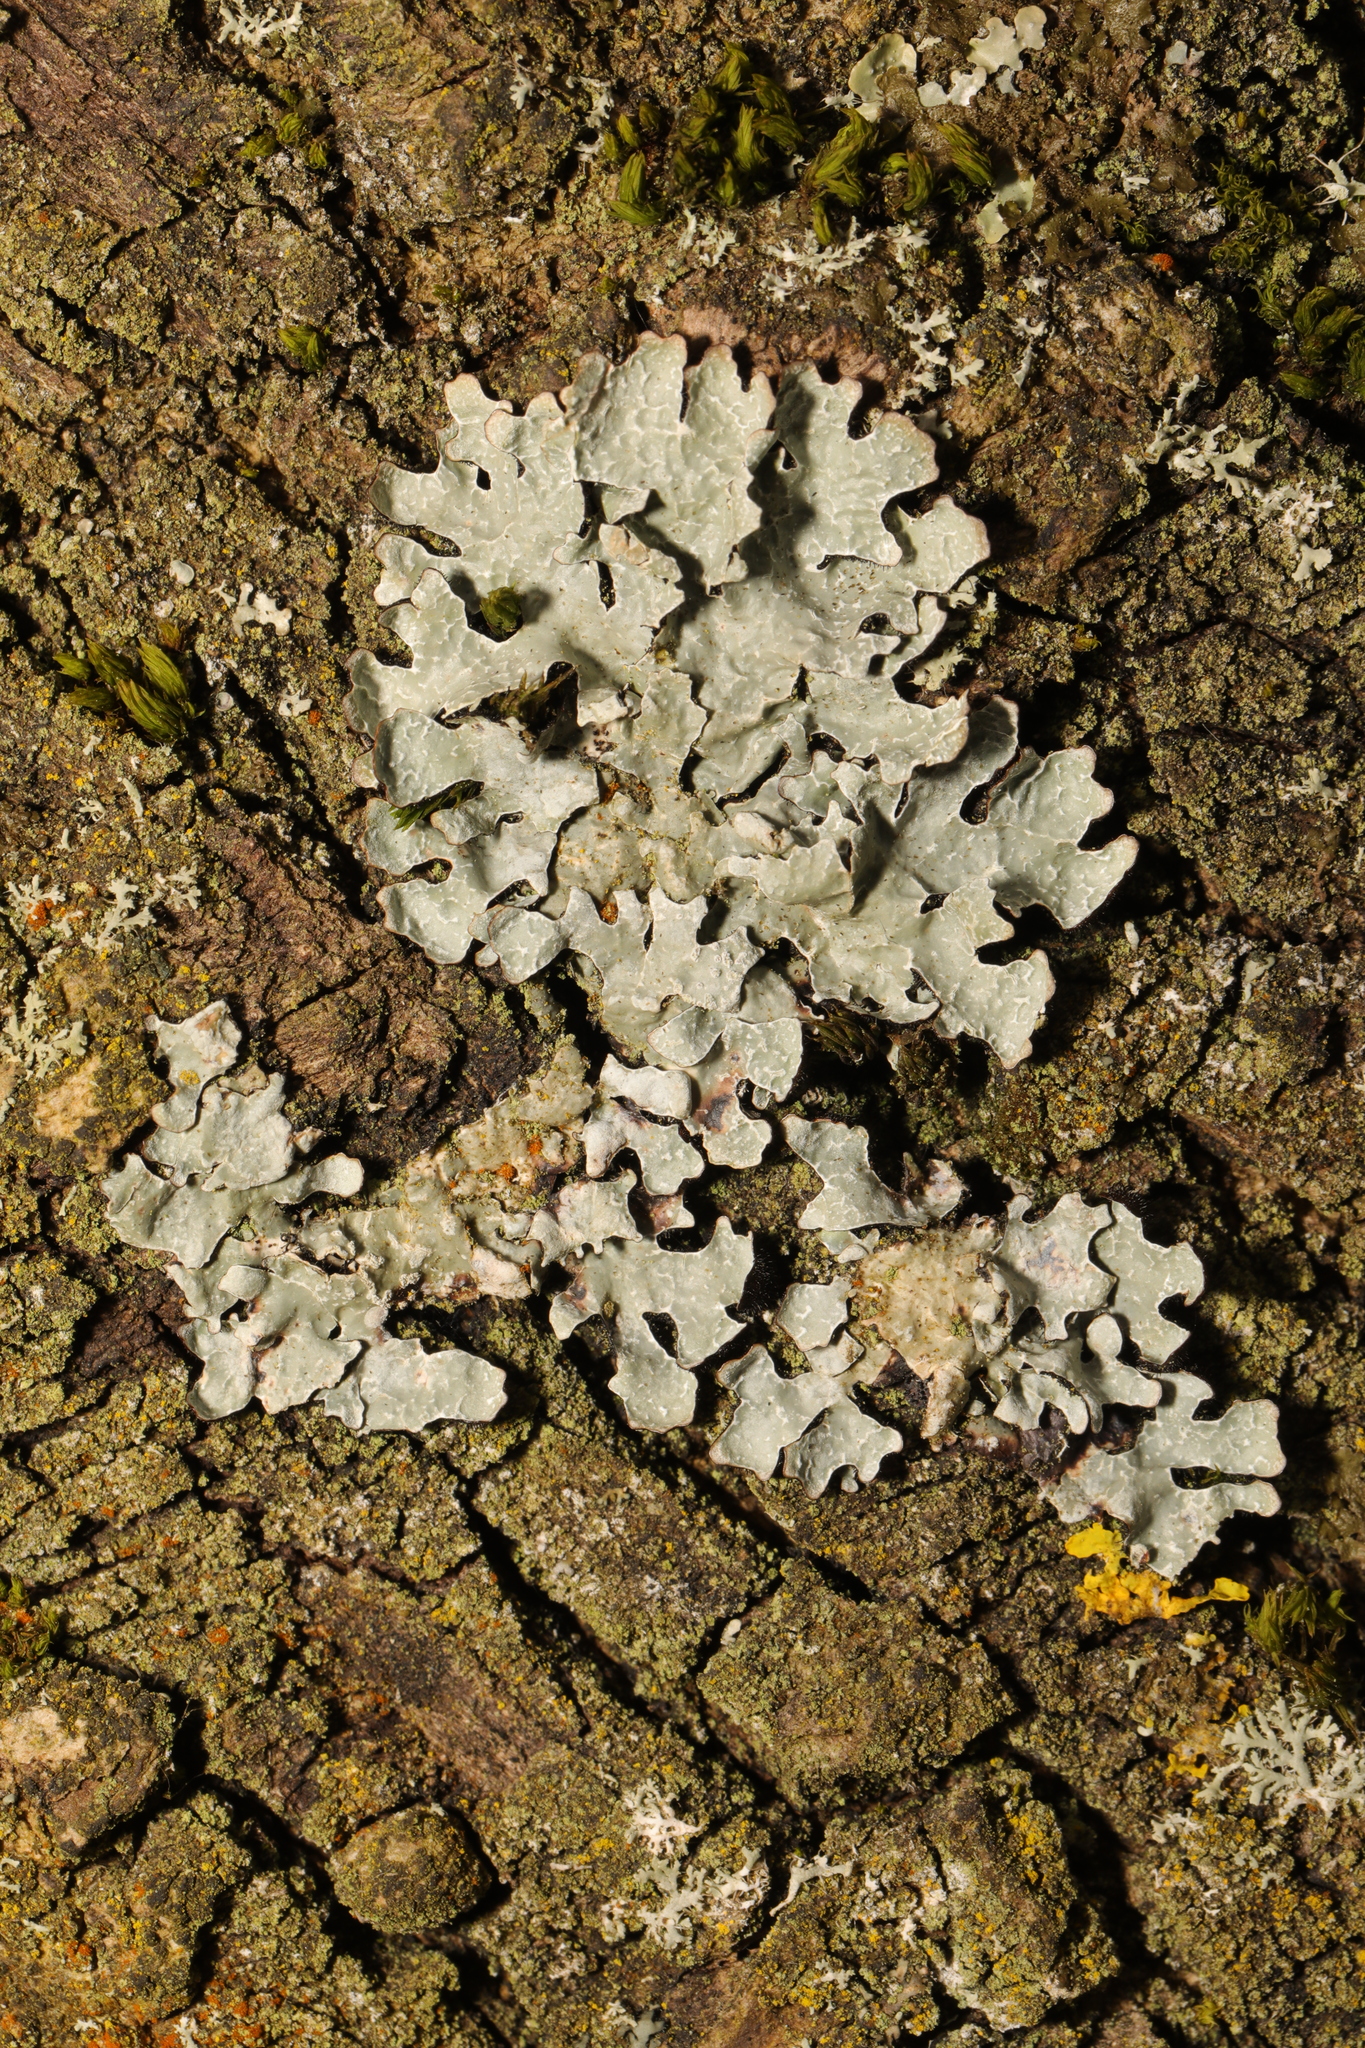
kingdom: Fungi
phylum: Ascomycota
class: Lecanoromycetes
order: Lecanorales
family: Parmeliaceae
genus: Parmelia
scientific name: Parmelia sulcata
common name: Netted shield lichen
